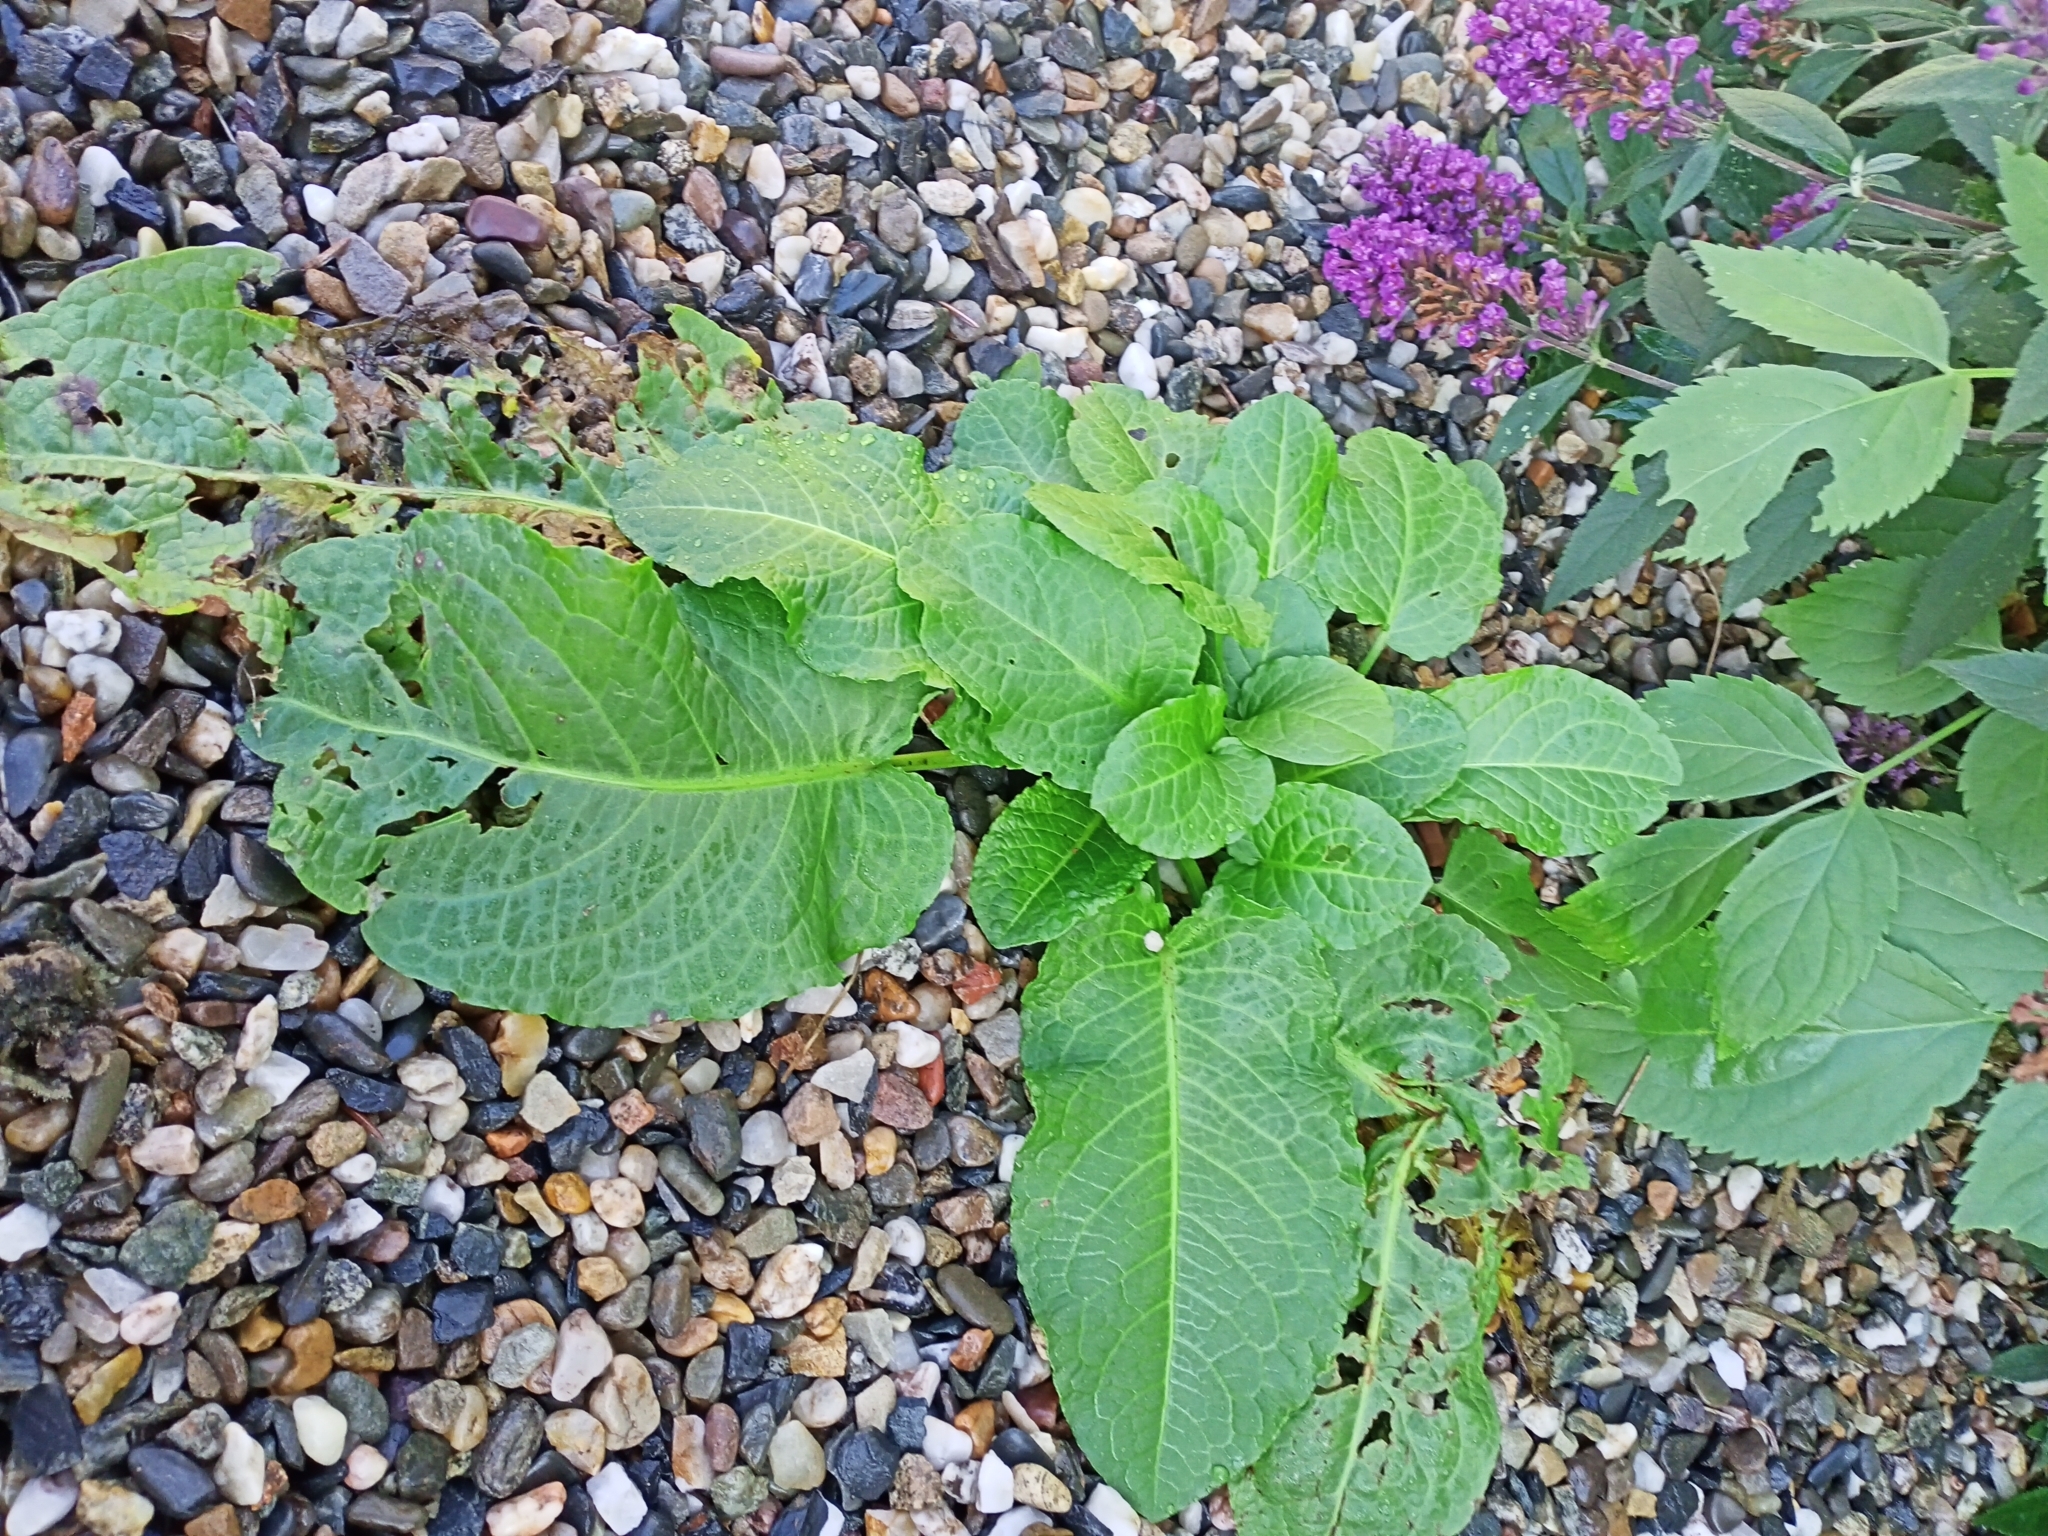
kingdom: Plantae
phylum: Tracheophyta
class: Magnoliopsida
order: Caryophyllales
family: Polygonaceae
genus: Rumex
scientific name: Rumex obtusifolius
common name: Bitter dock
